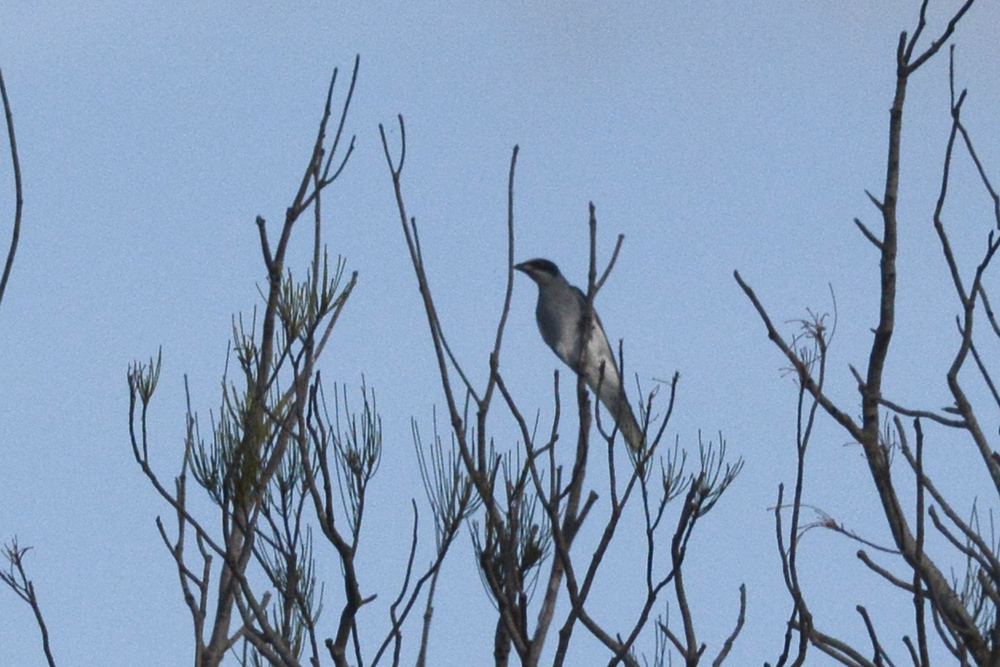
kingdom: Animalia
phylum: Chordata
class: Aves
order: Passeriformes
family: Campephagidae
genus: Coracina
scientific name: Coracina novaehollandiae
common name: Black-faced cuckooshrike
